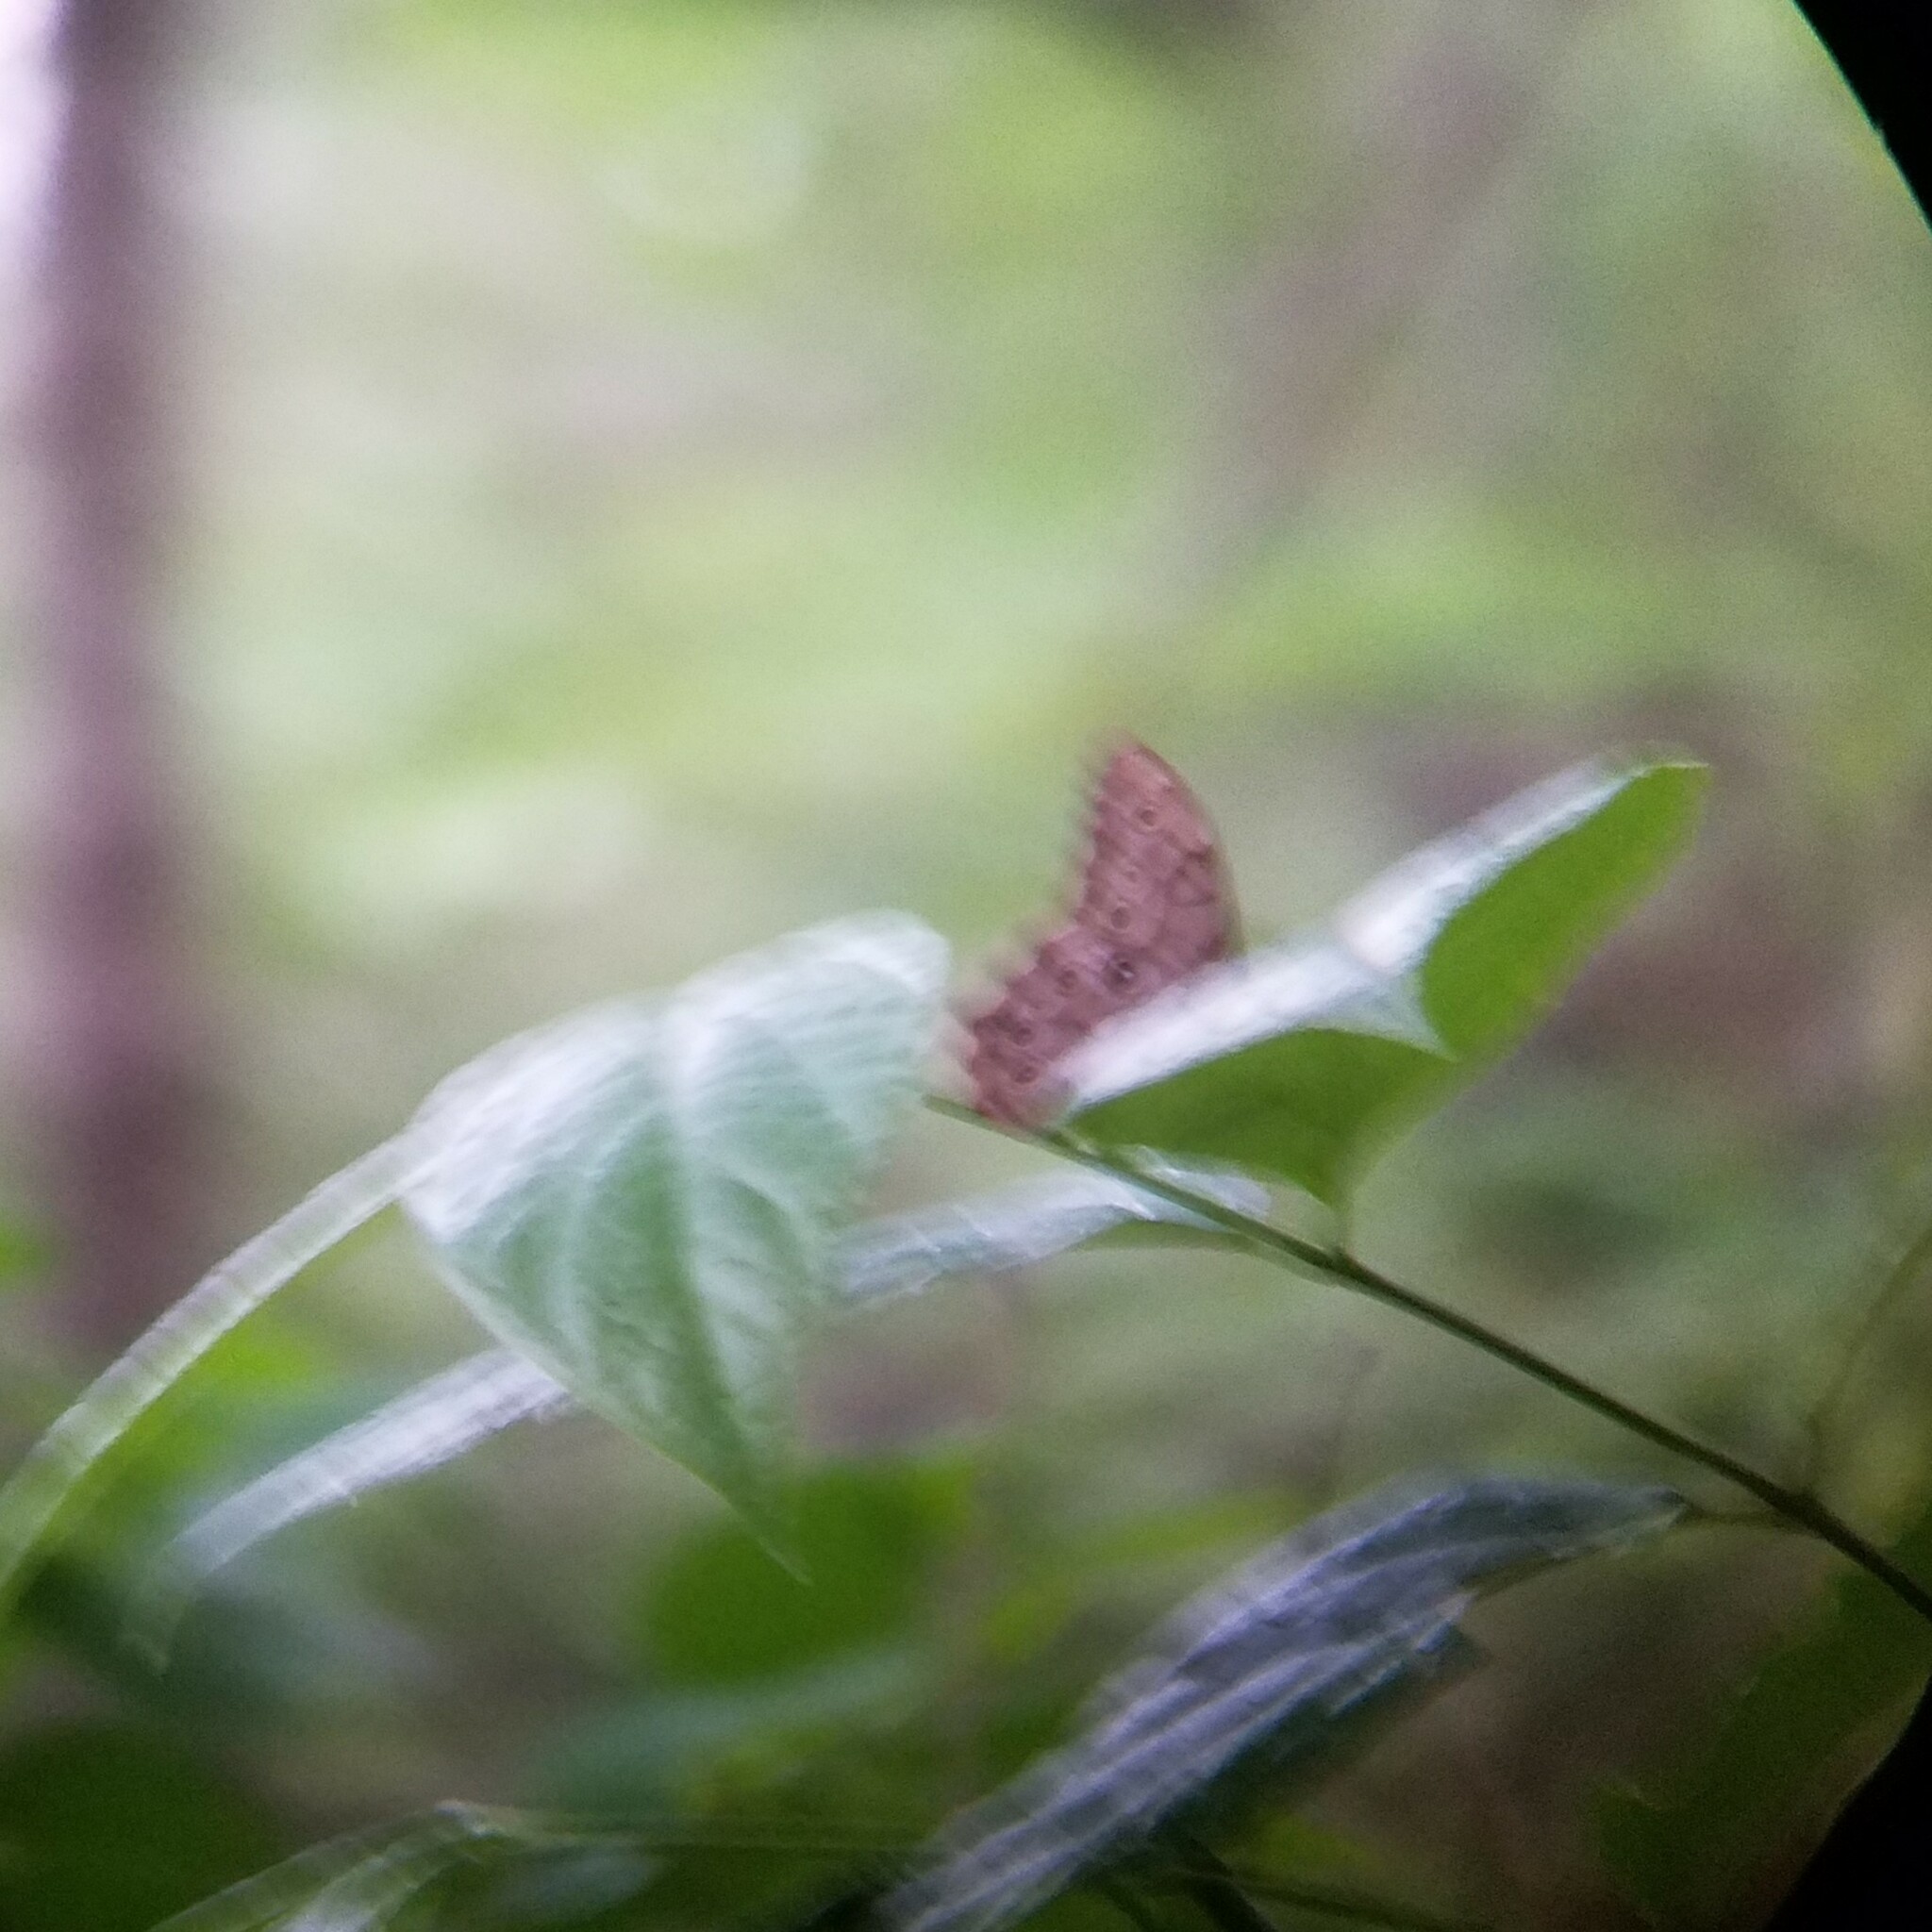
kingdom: Animalia
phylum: Arthropoda
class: Insecta
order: Lepidoptera
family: Nymphalidae
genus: Lethe
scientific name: Lethe creola
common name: Creole pearly-eye
